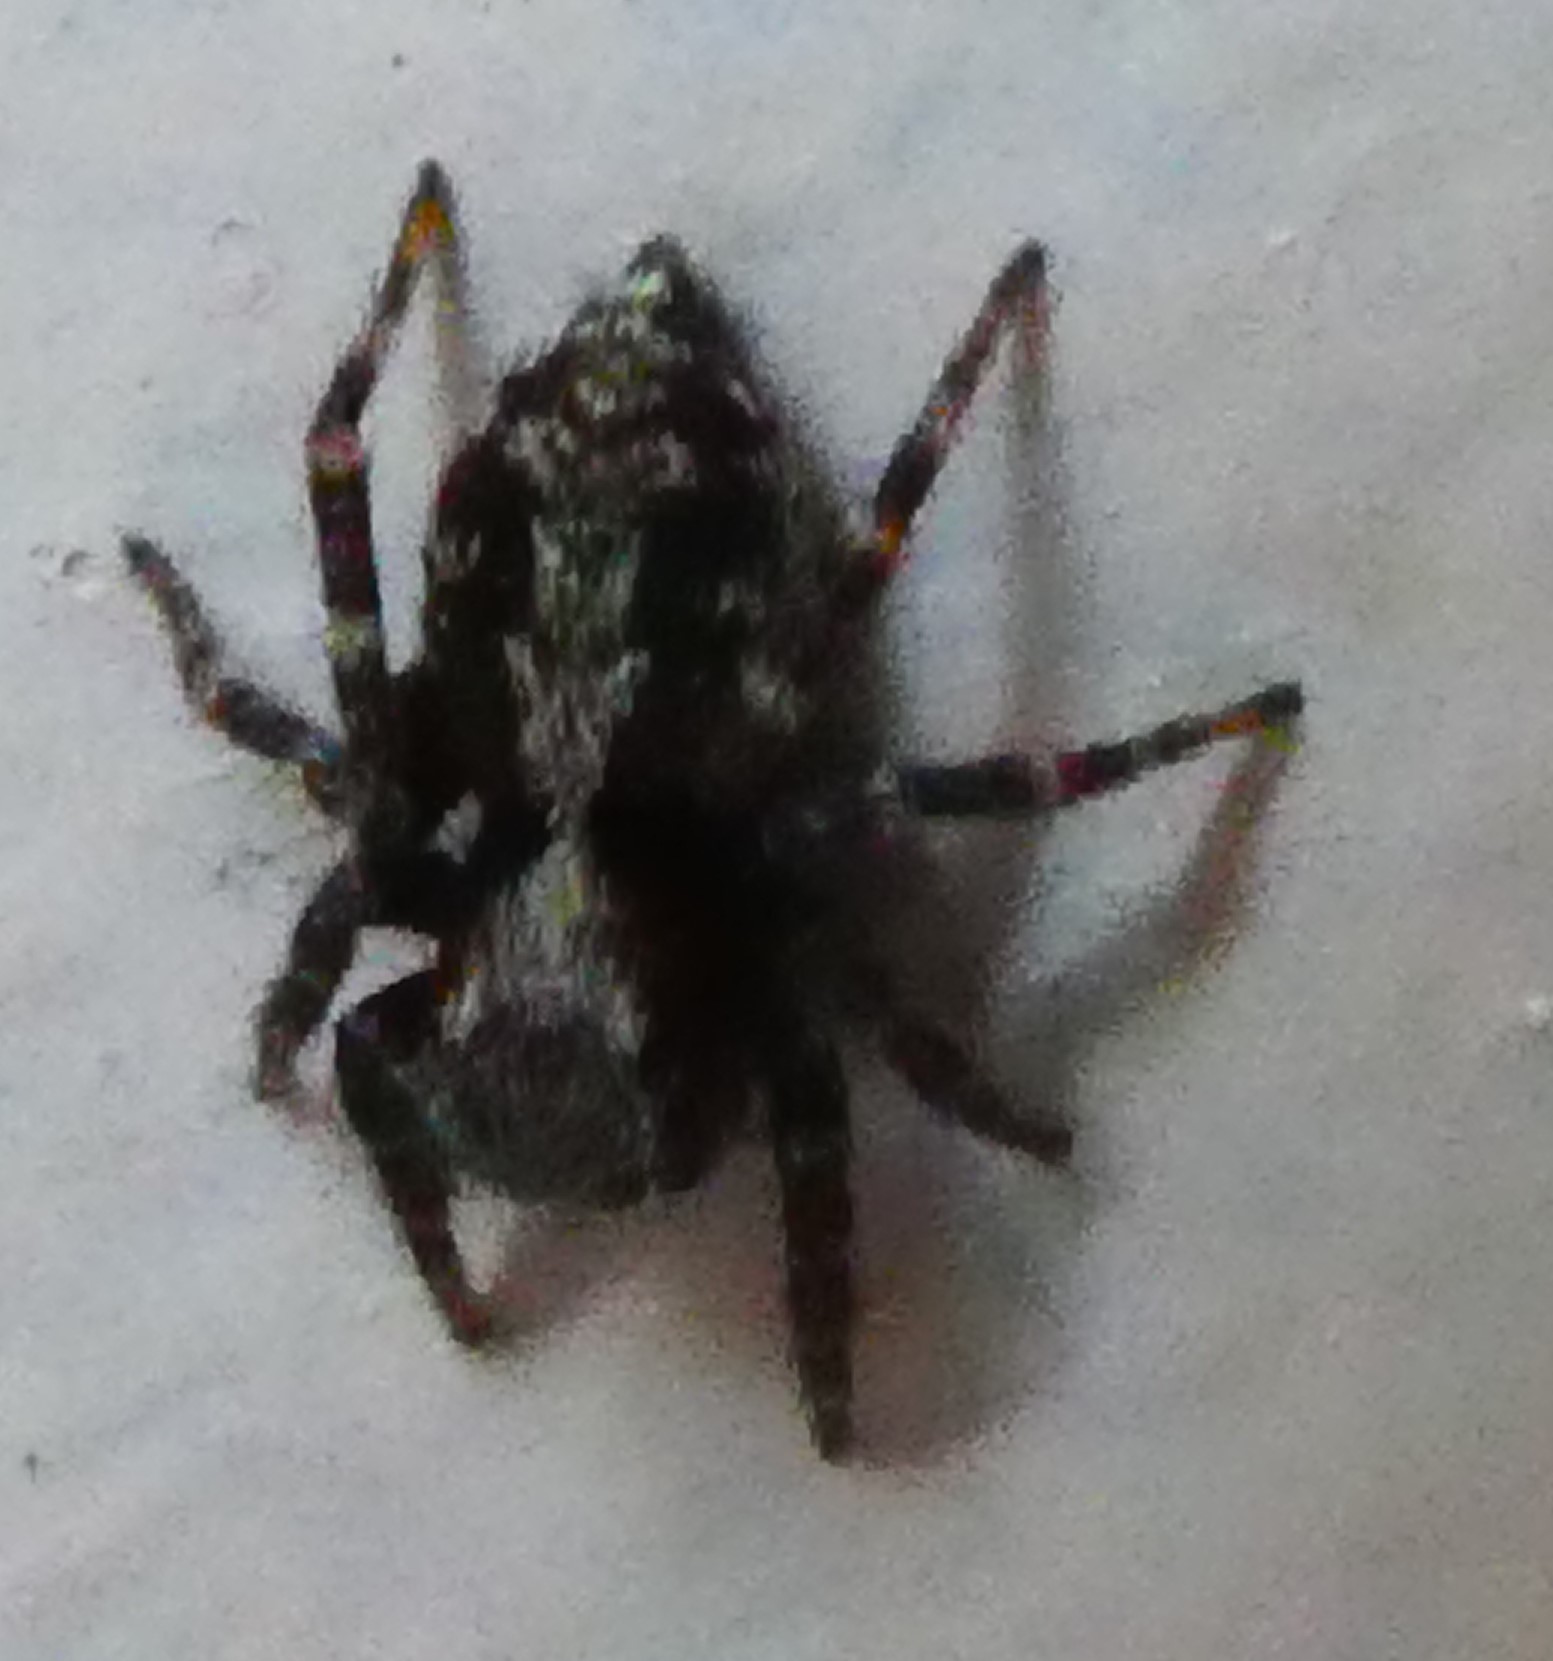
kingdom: Animalia
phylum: Arthropoda
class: Arachnida
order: Araneae
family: Salticidae
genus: Pseudeuophrys
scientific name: Pseudeuophrys lanigera
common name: Jumping spider
